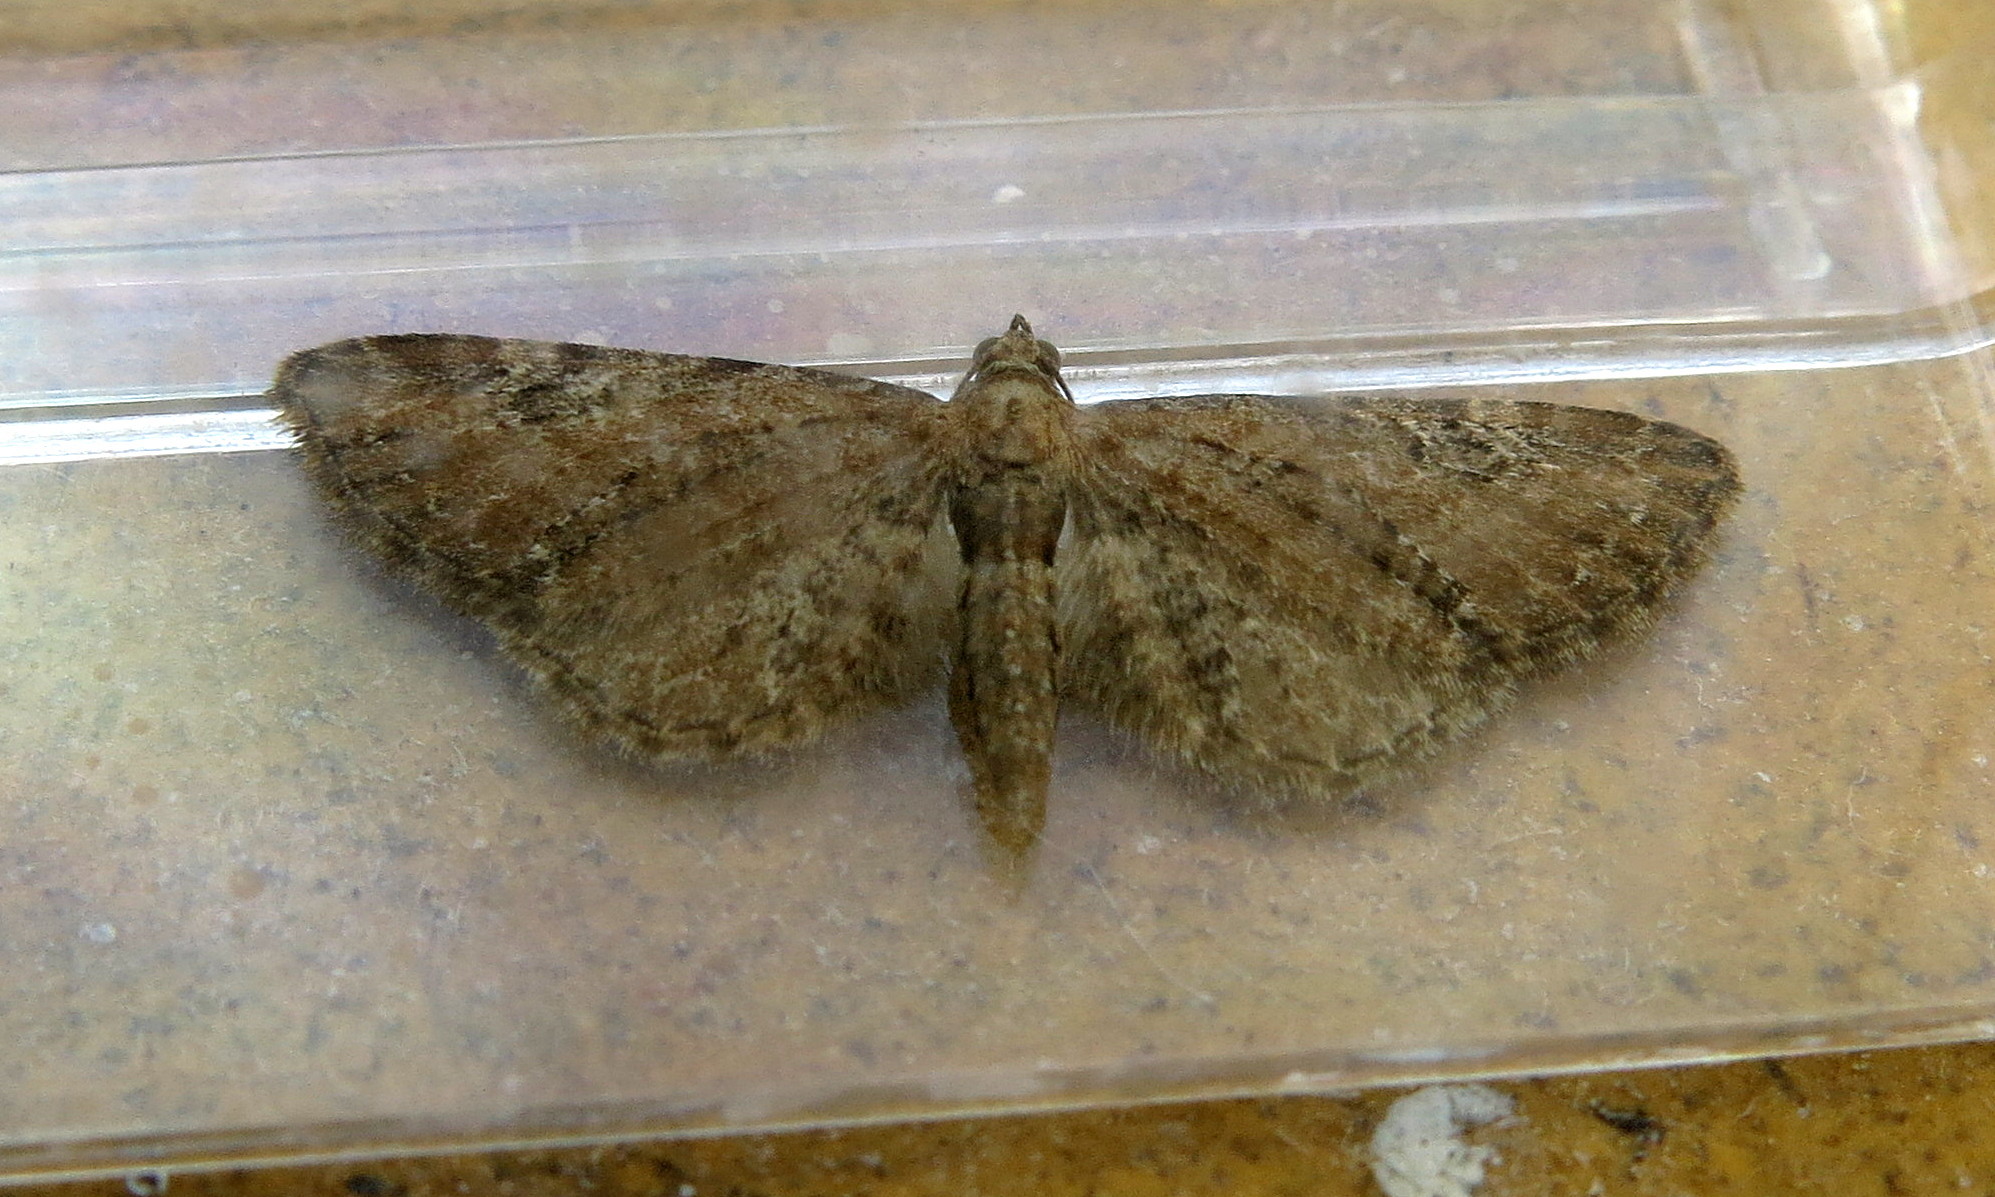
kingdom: Animalia
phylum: Arthropoda
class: Insecta
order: Lepidoptera
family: Geometridae
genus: Eupithecia
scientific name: Eupithecia vulgata
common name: Common pug
